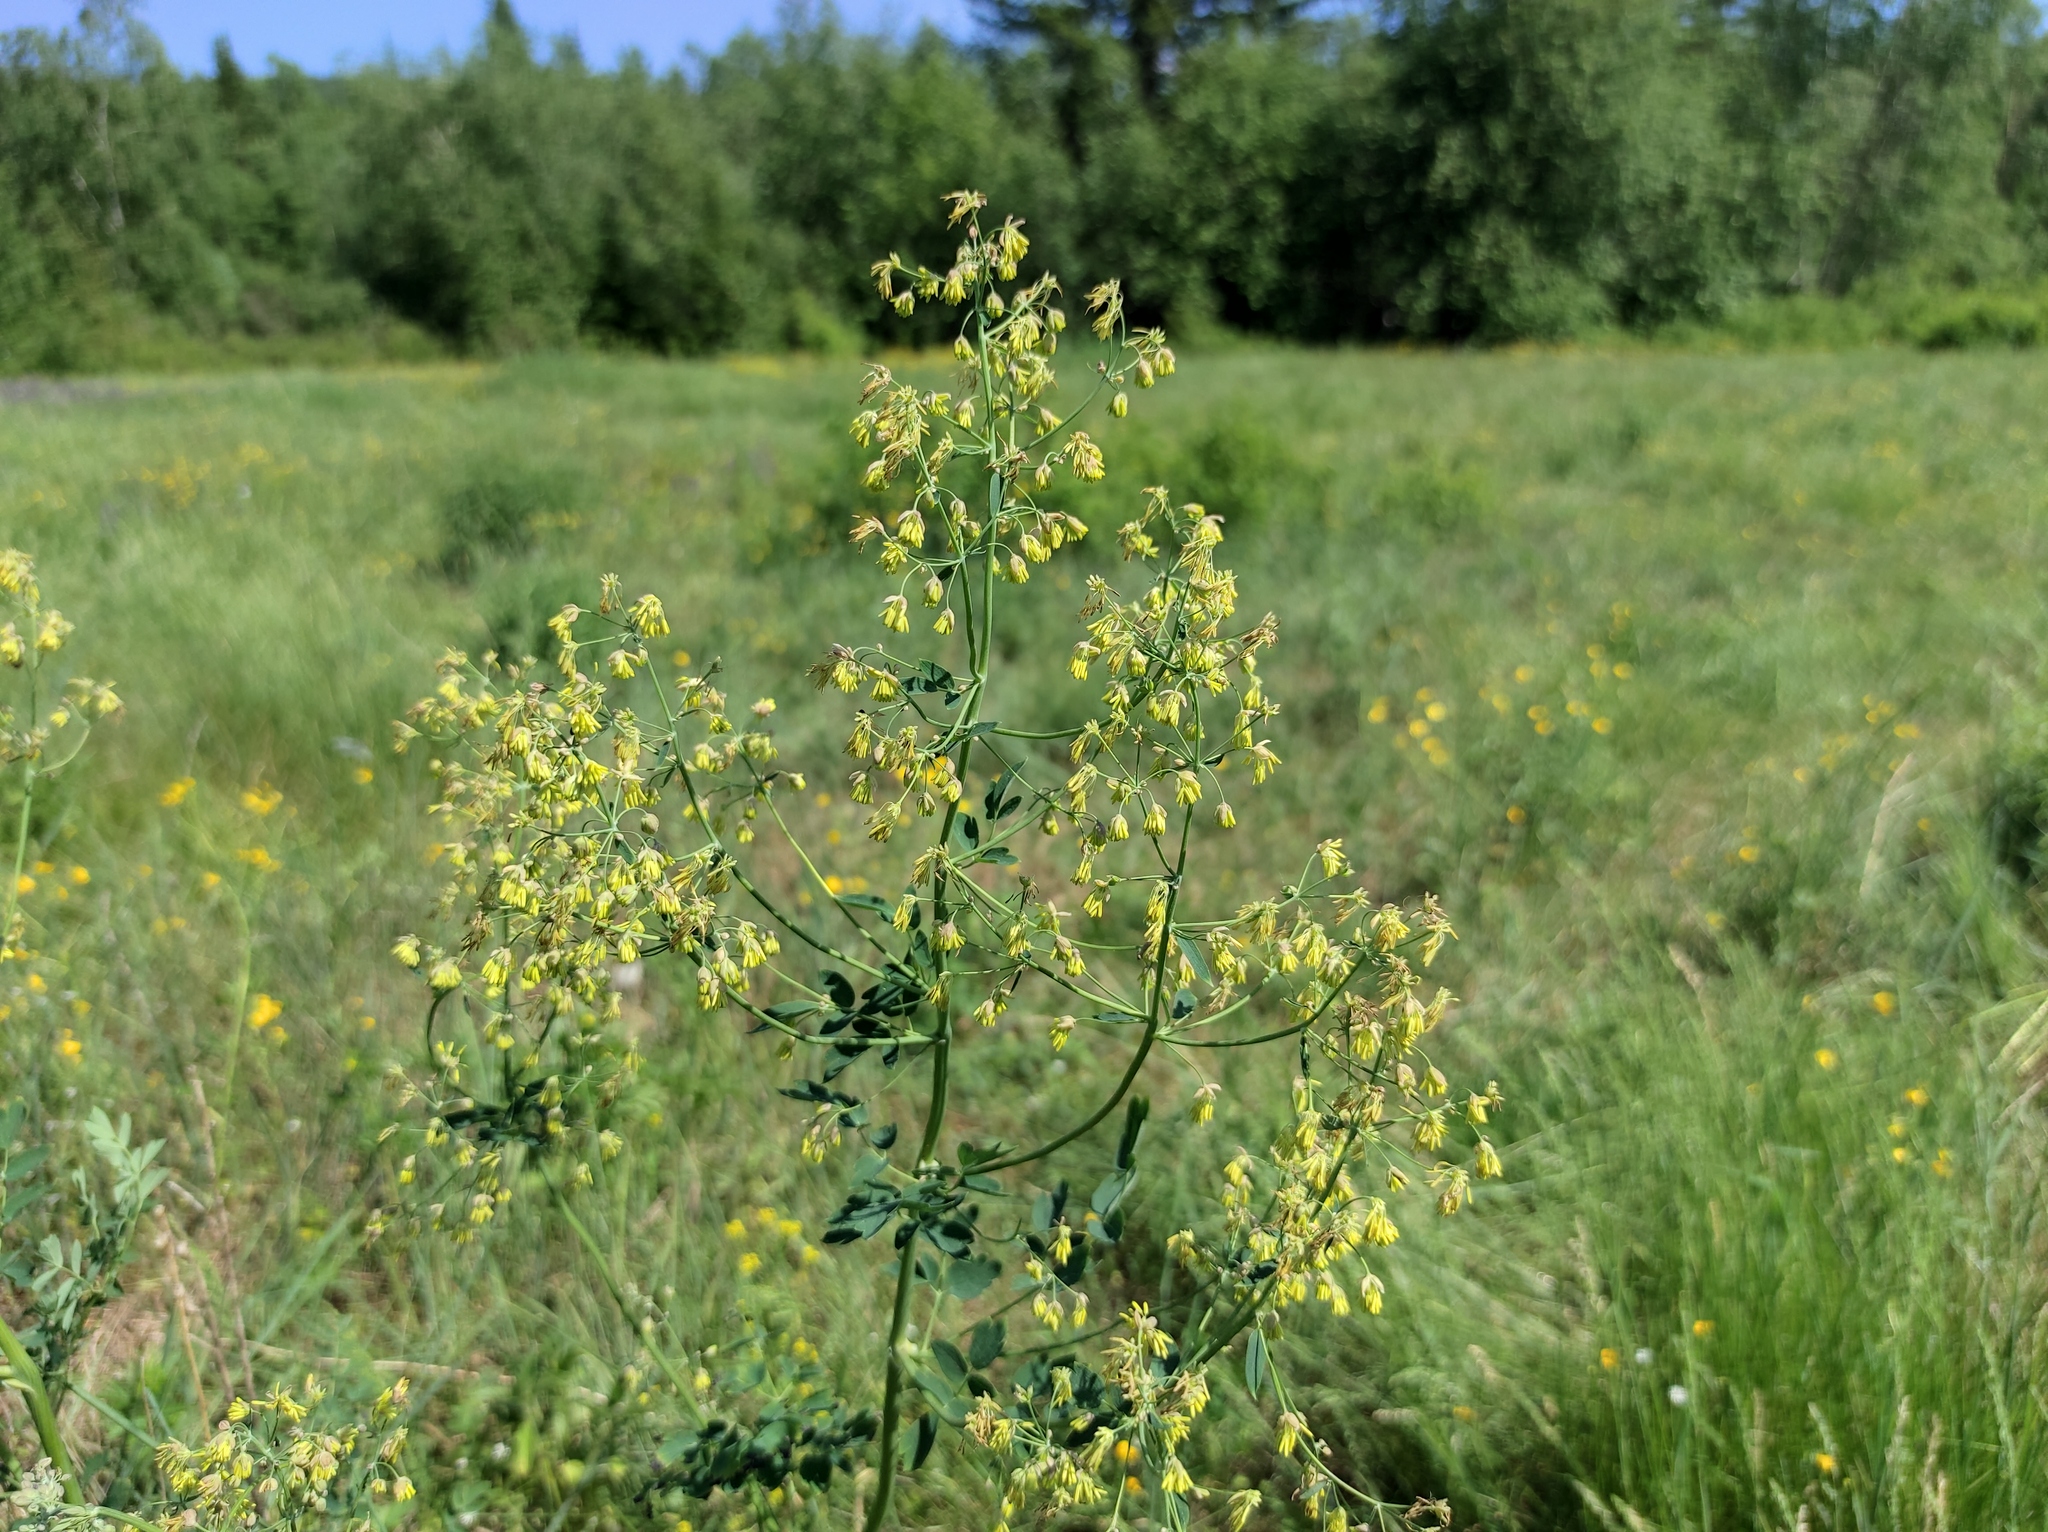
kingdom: Plantae
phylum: Tracheophyta
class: Magnoliopsida
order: Ranunculales
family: Ranunculaceae
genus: Thalictrum
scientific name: Thalictrum minus
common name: Lesser meadow-rue
